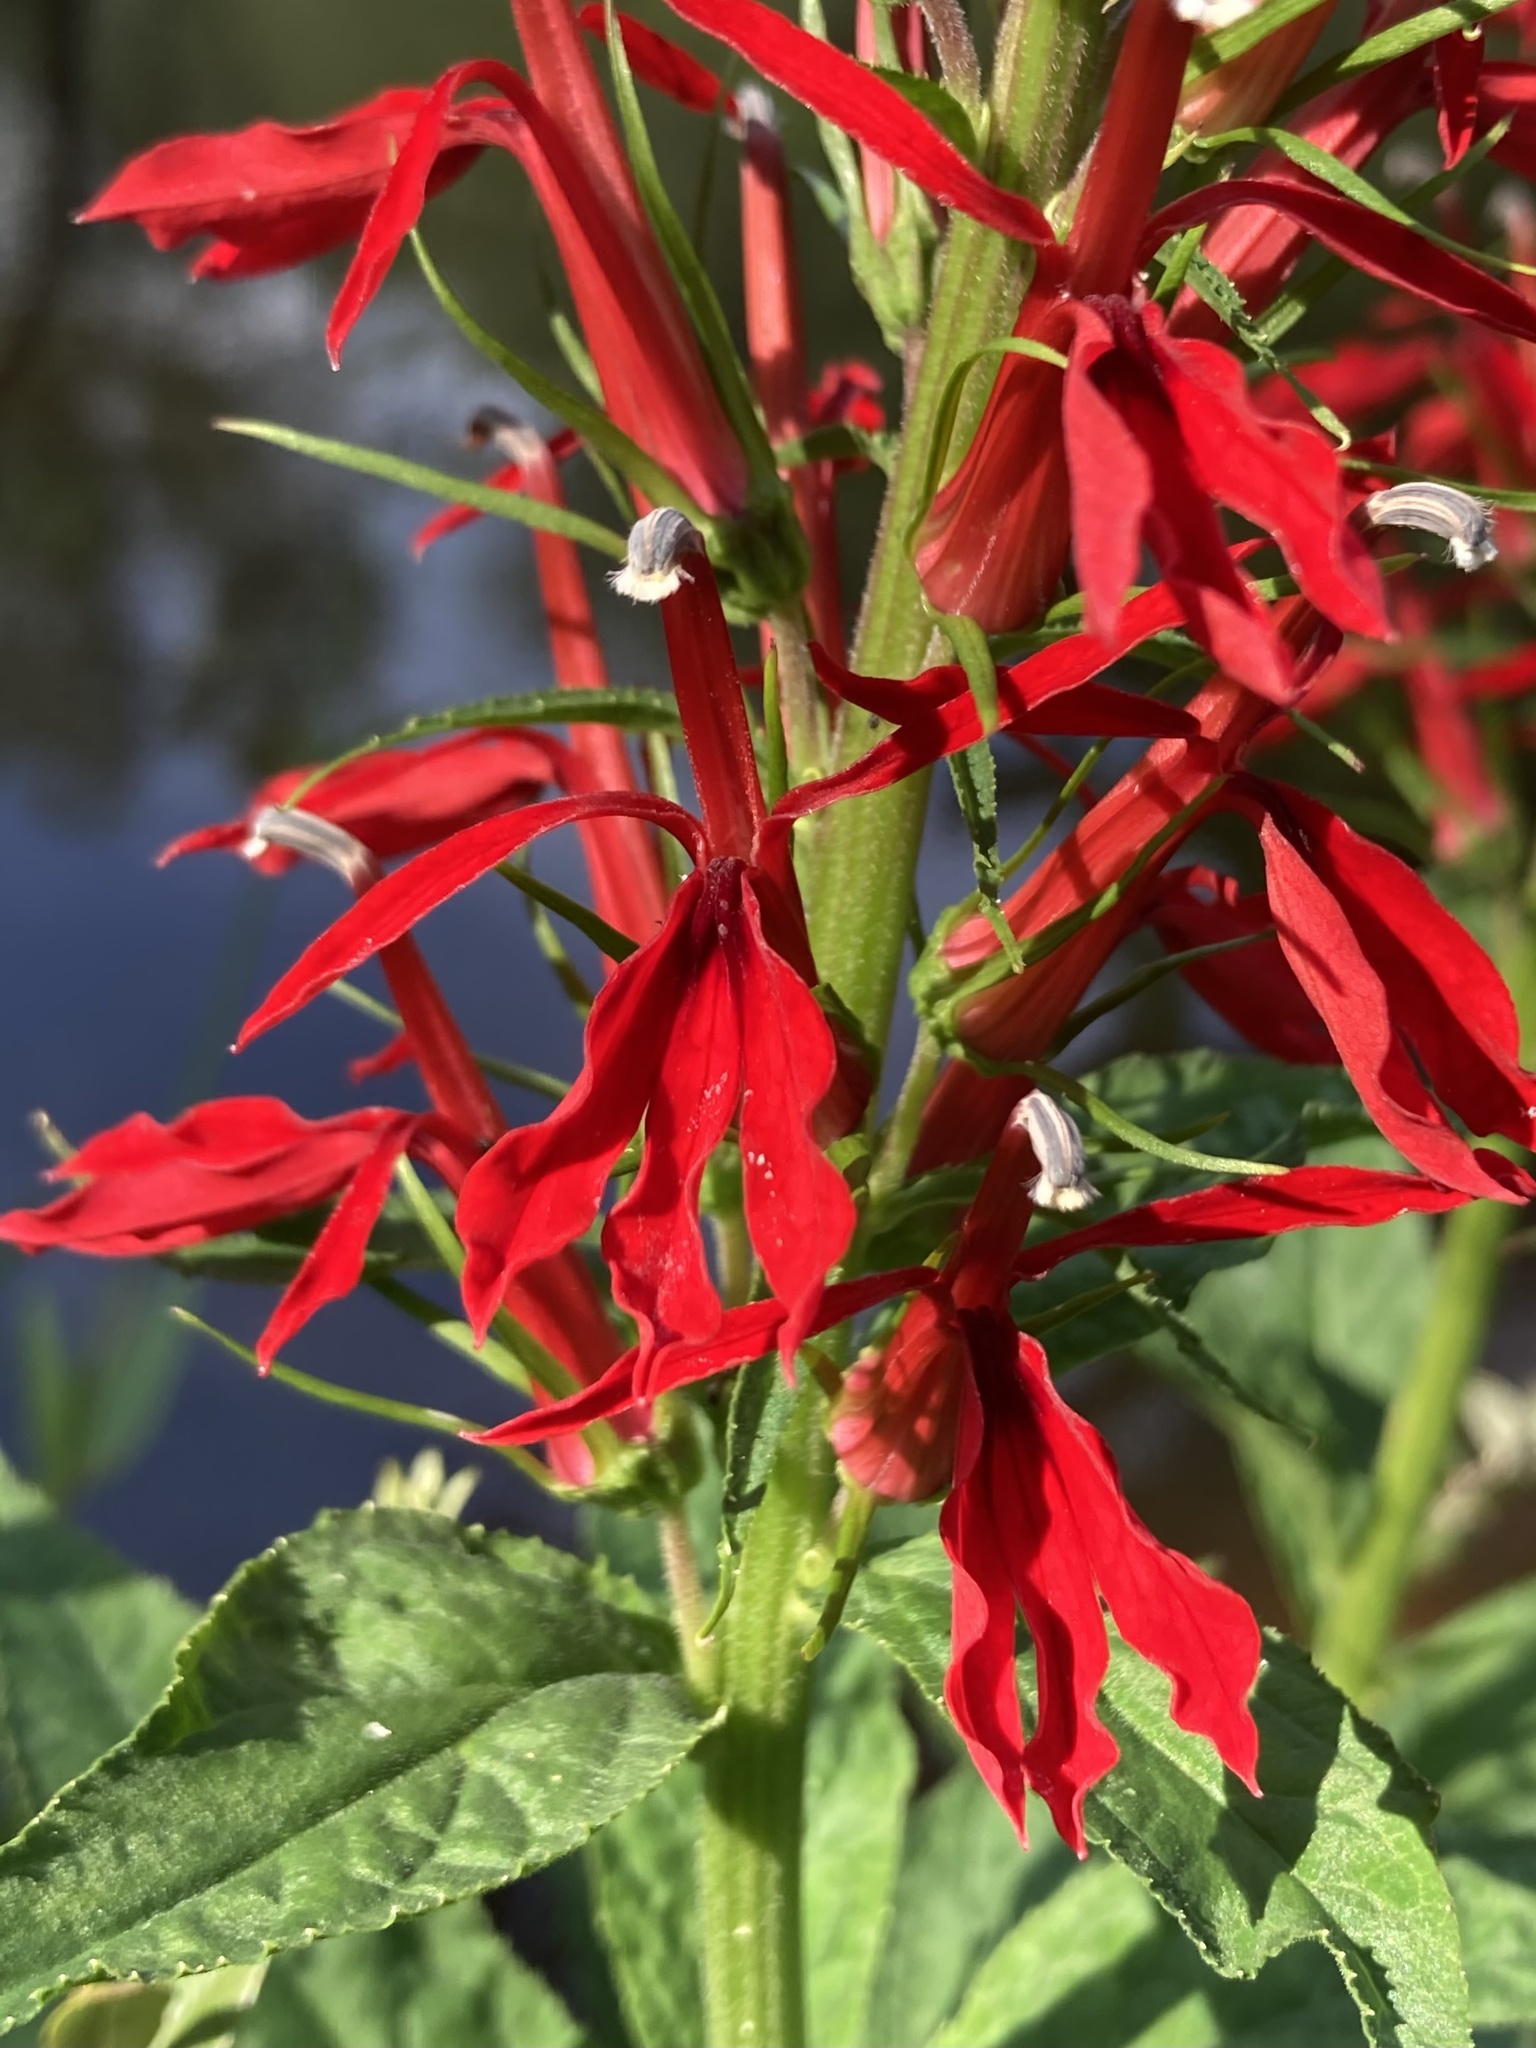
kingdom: Plantae
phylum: Tracheophyta
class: Magnoliopsida
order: Asterales
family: Campanulaceae
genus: Lobelia
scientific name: Lobelia cardinalis
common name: Cardinal flower
